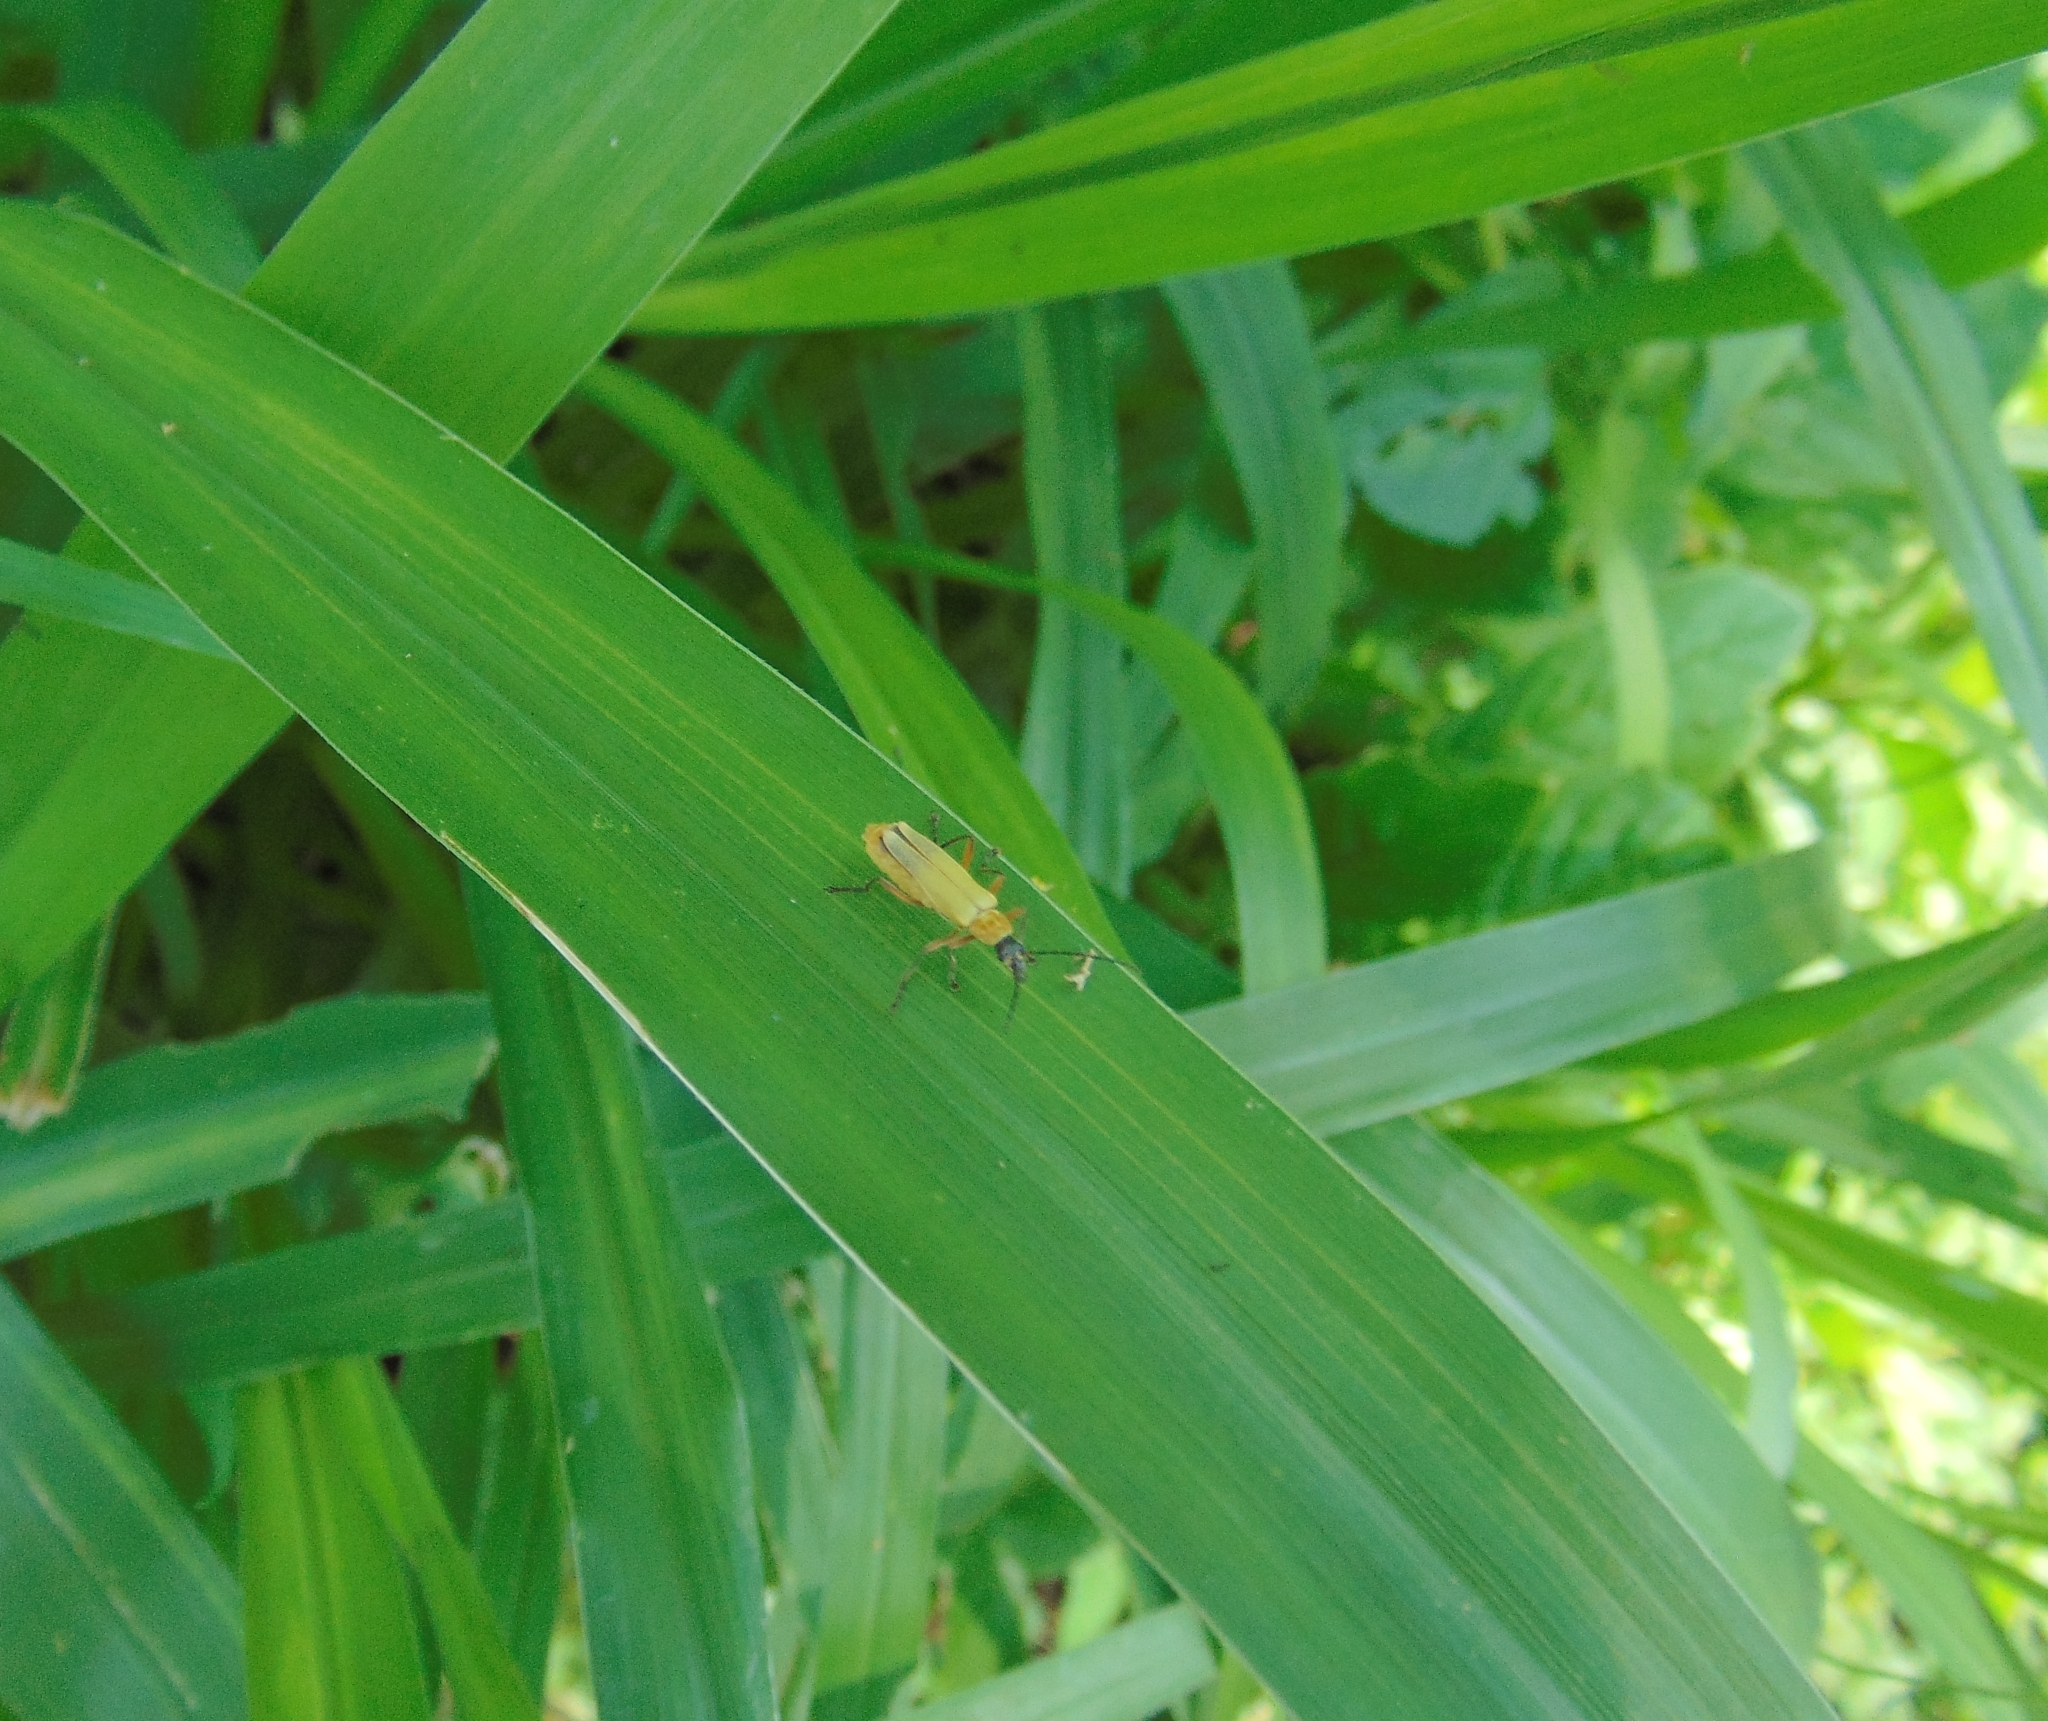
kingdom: Animalia
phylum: Arthropoda
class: Insecta
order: Coleoptera
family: Cantharidae
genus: Chauliognathus
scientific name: Chauliognathus
